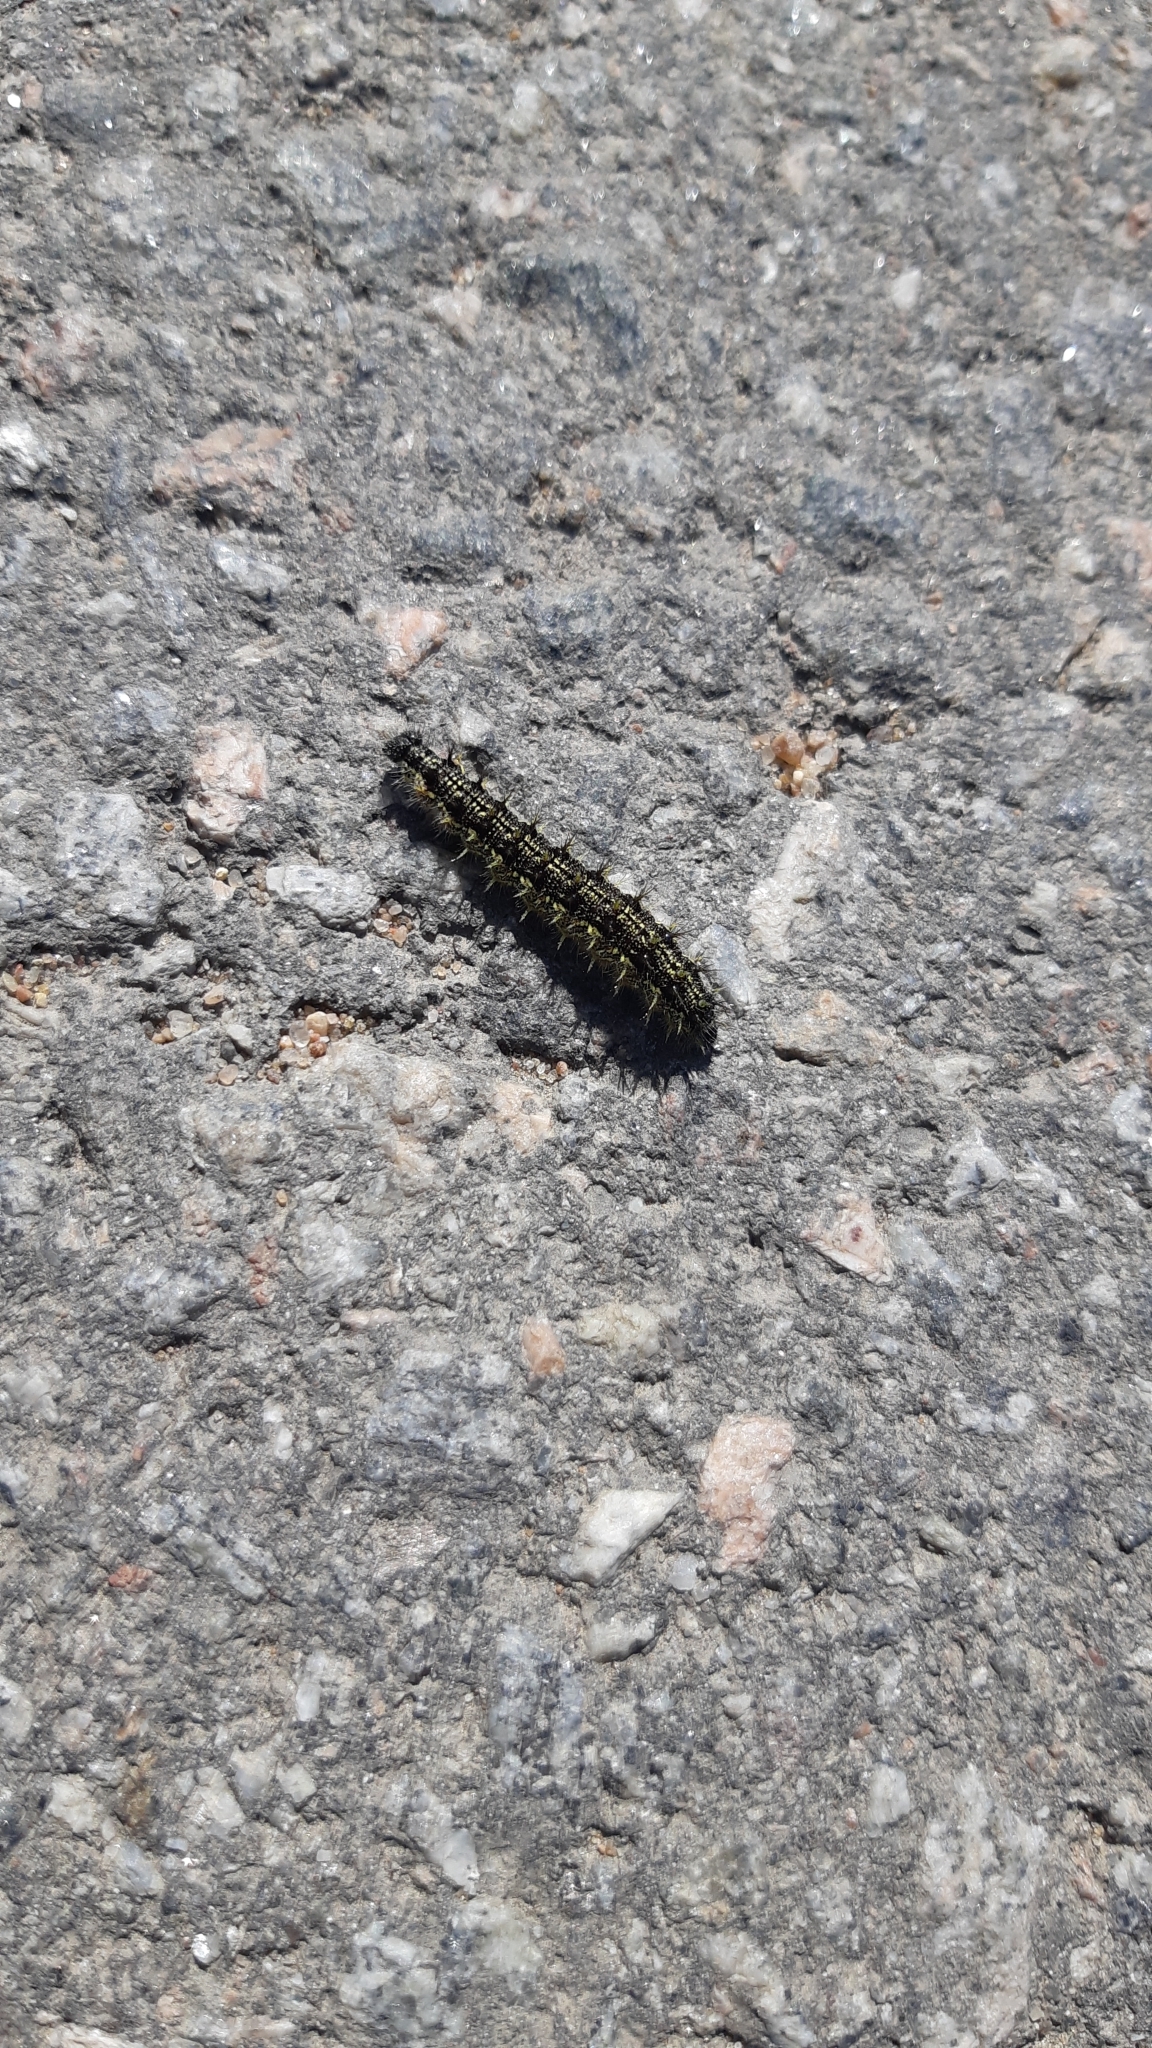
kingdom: Animalia
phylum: Arthropoda
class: Insecta
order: Lepidoptera
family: Nymphalidae
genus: Aglais
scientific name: Aglais urticae
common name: Small tortoiseshell
